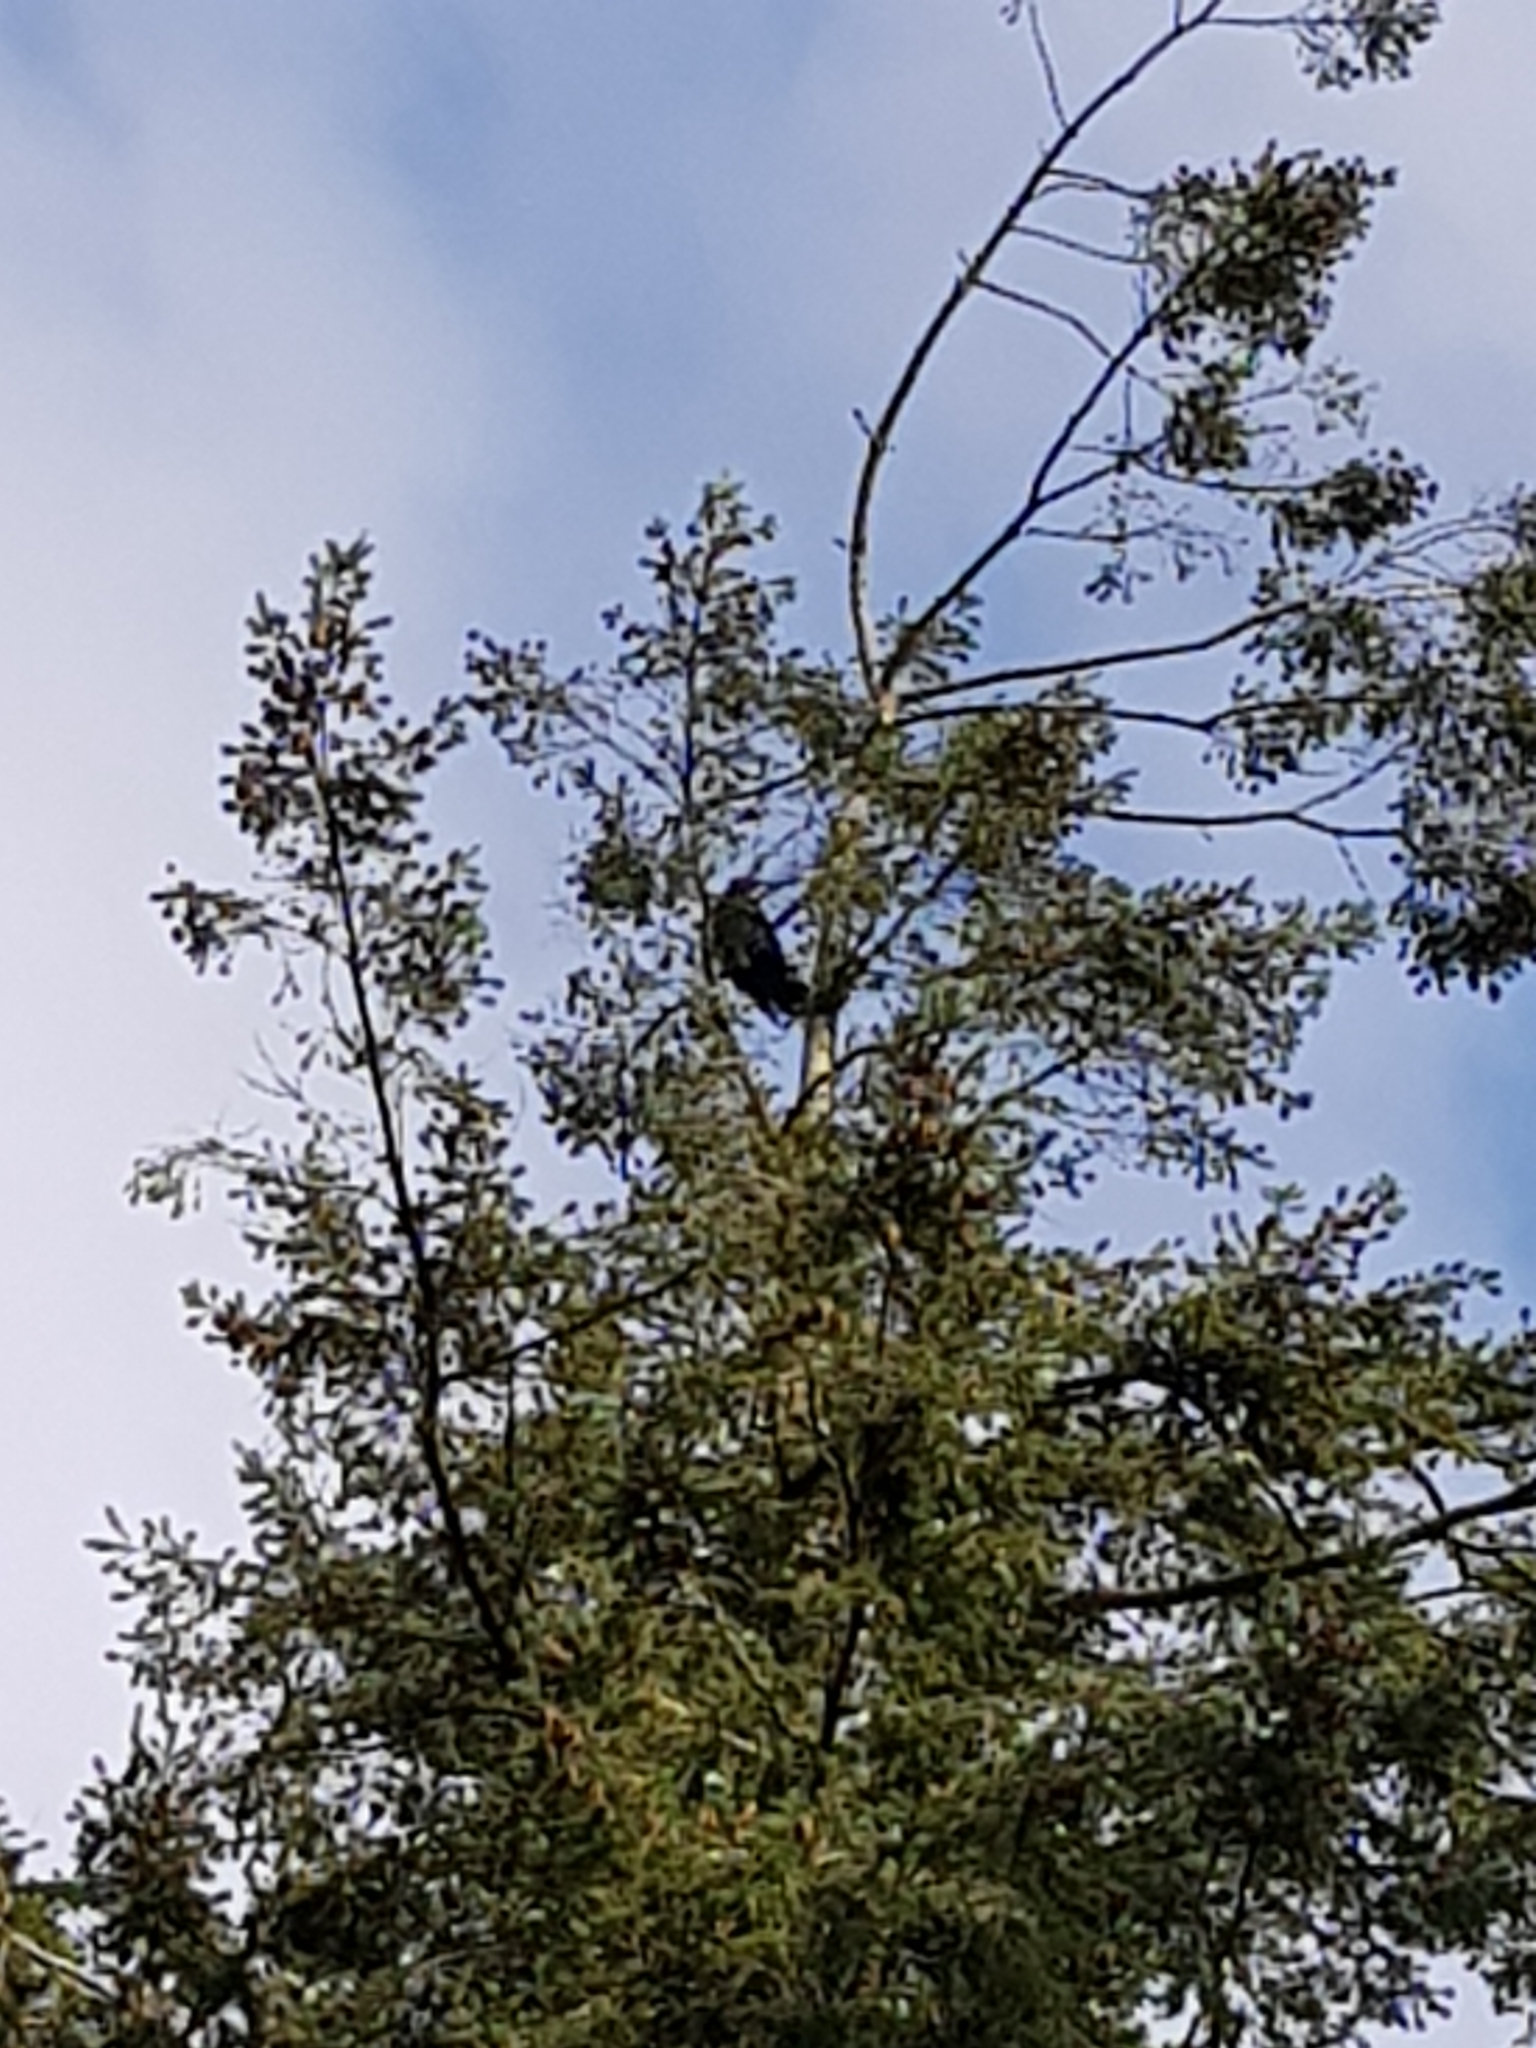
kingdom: Animalia
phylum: Chordata
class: Aves
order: Passeriformes
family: Corvidae
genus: Corvus
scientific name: Corvus corax
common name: Common raven
